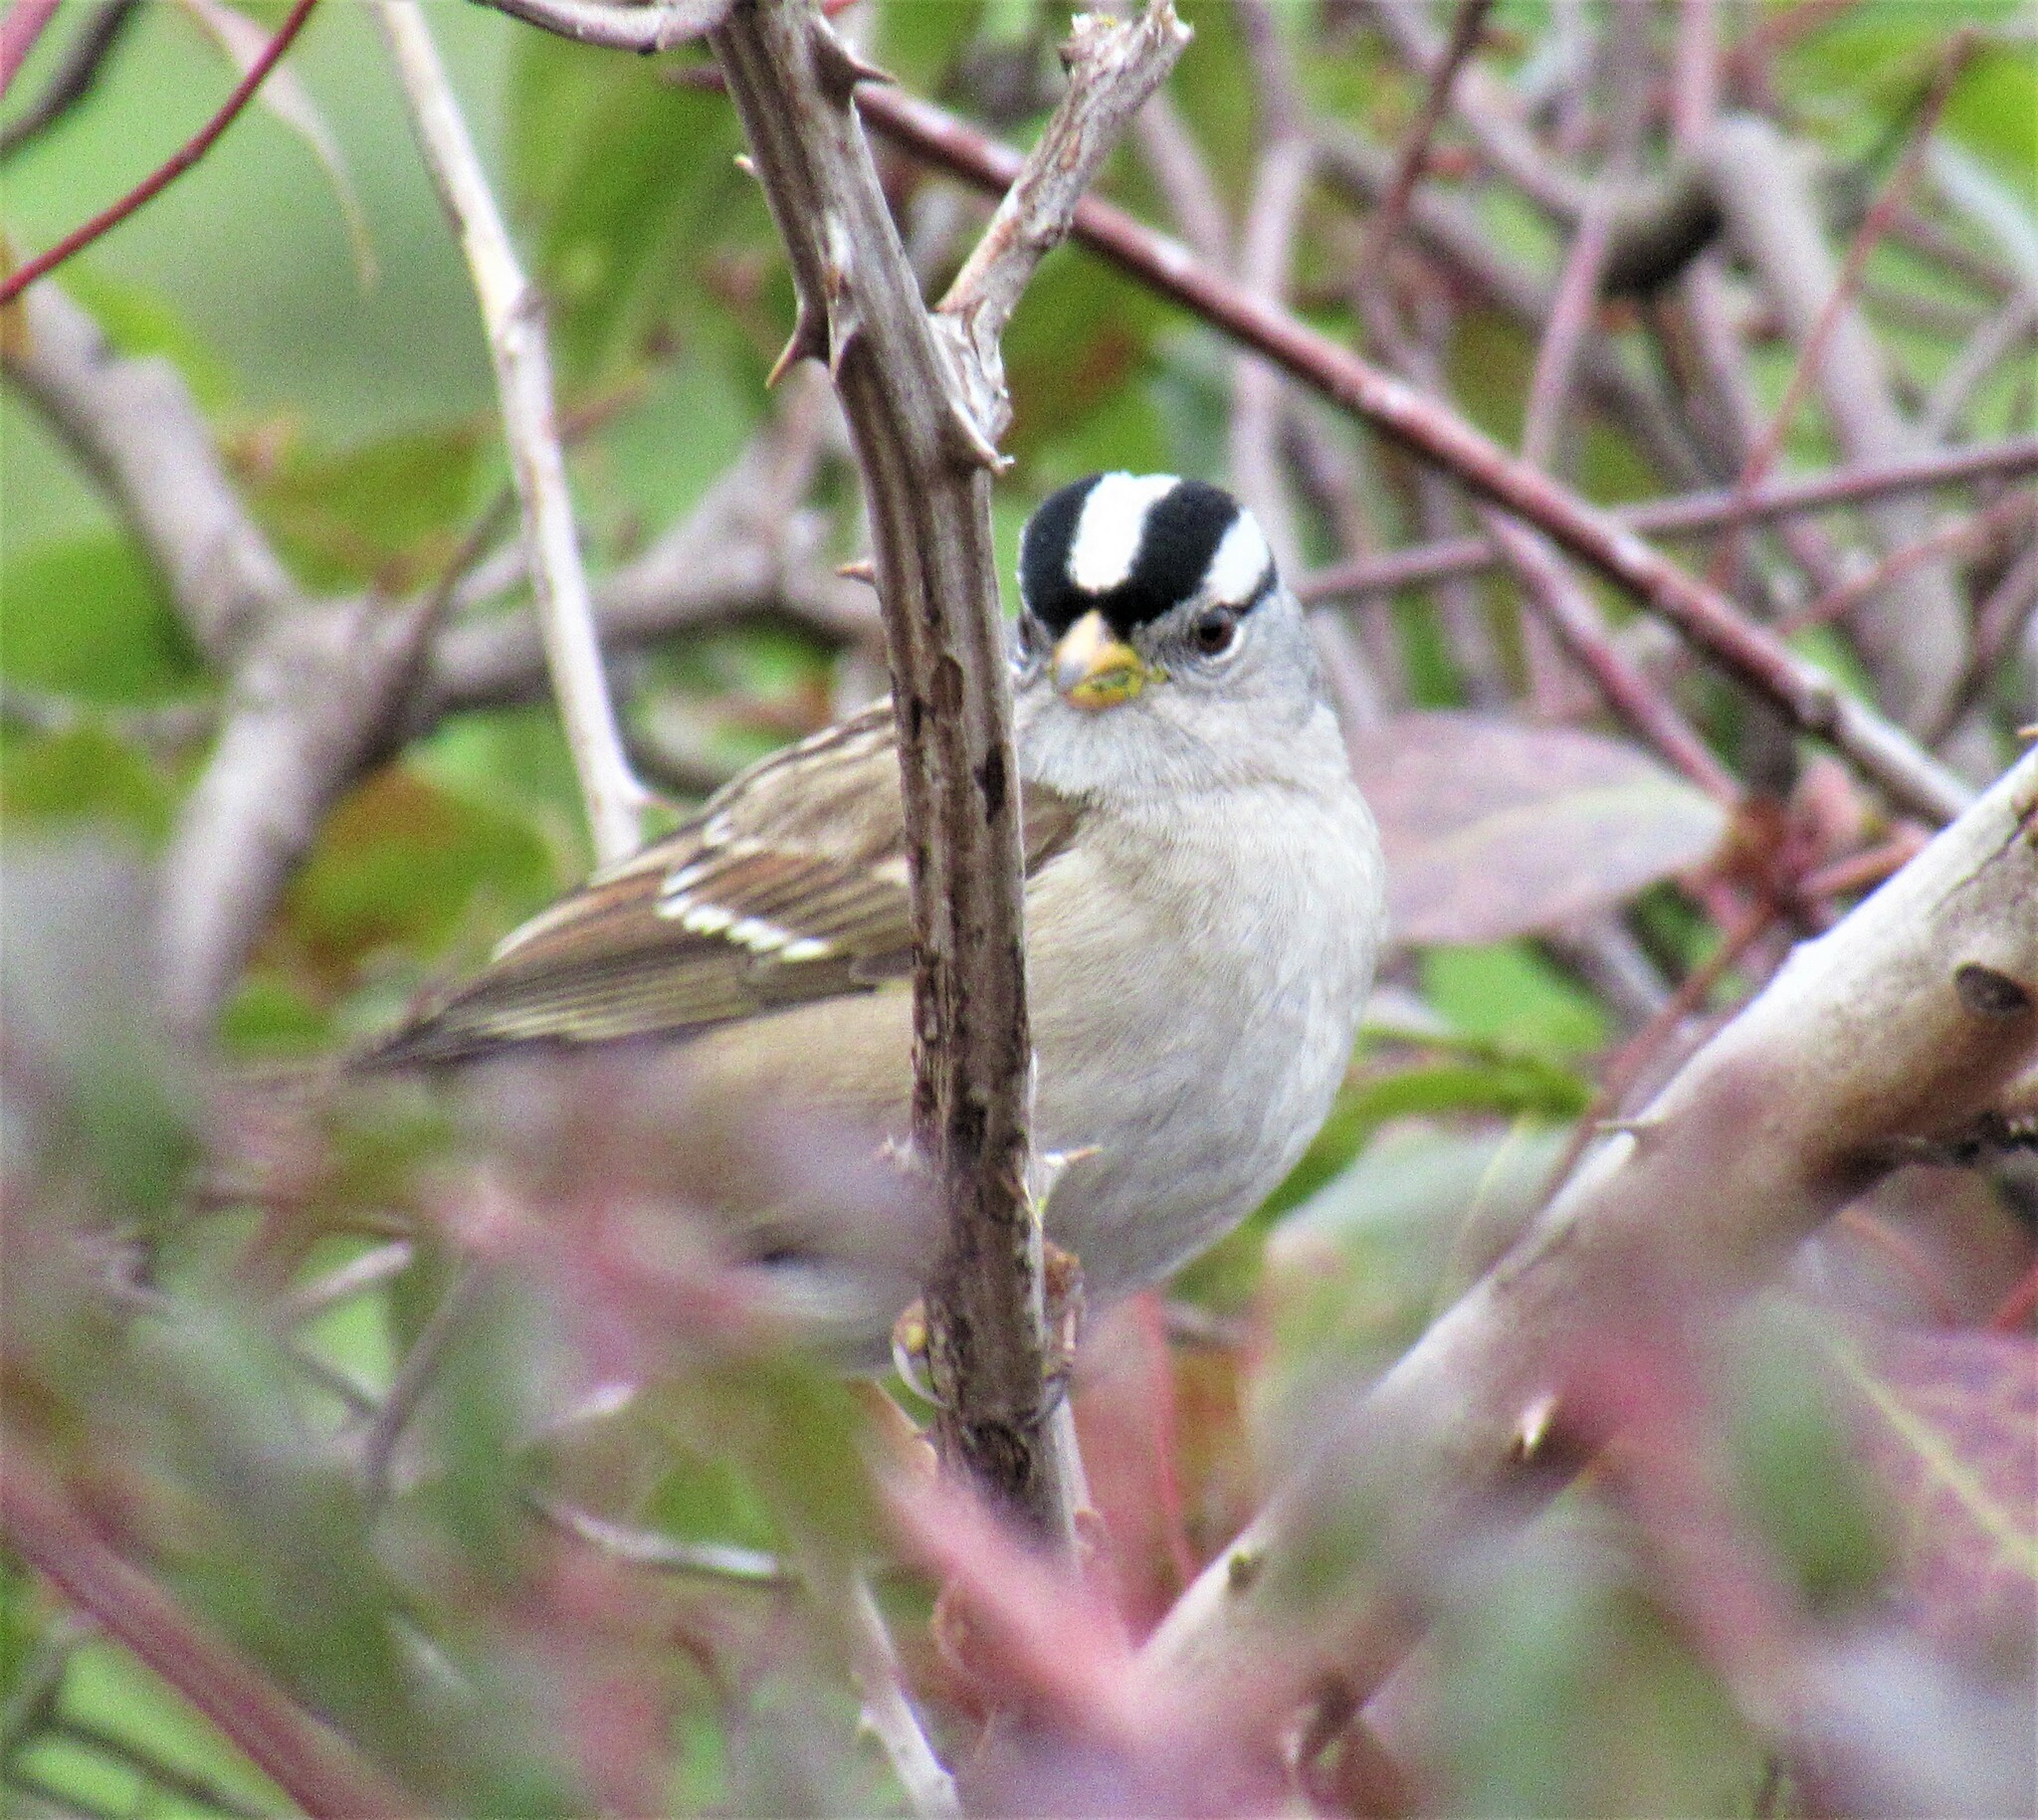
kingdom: Animalia
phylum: Chordata
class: Aves
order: Passeriformes
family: Passerellidae
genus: Zonotrichia
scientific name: Zonotrichia leucophrys
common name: White-crowned sparrow
